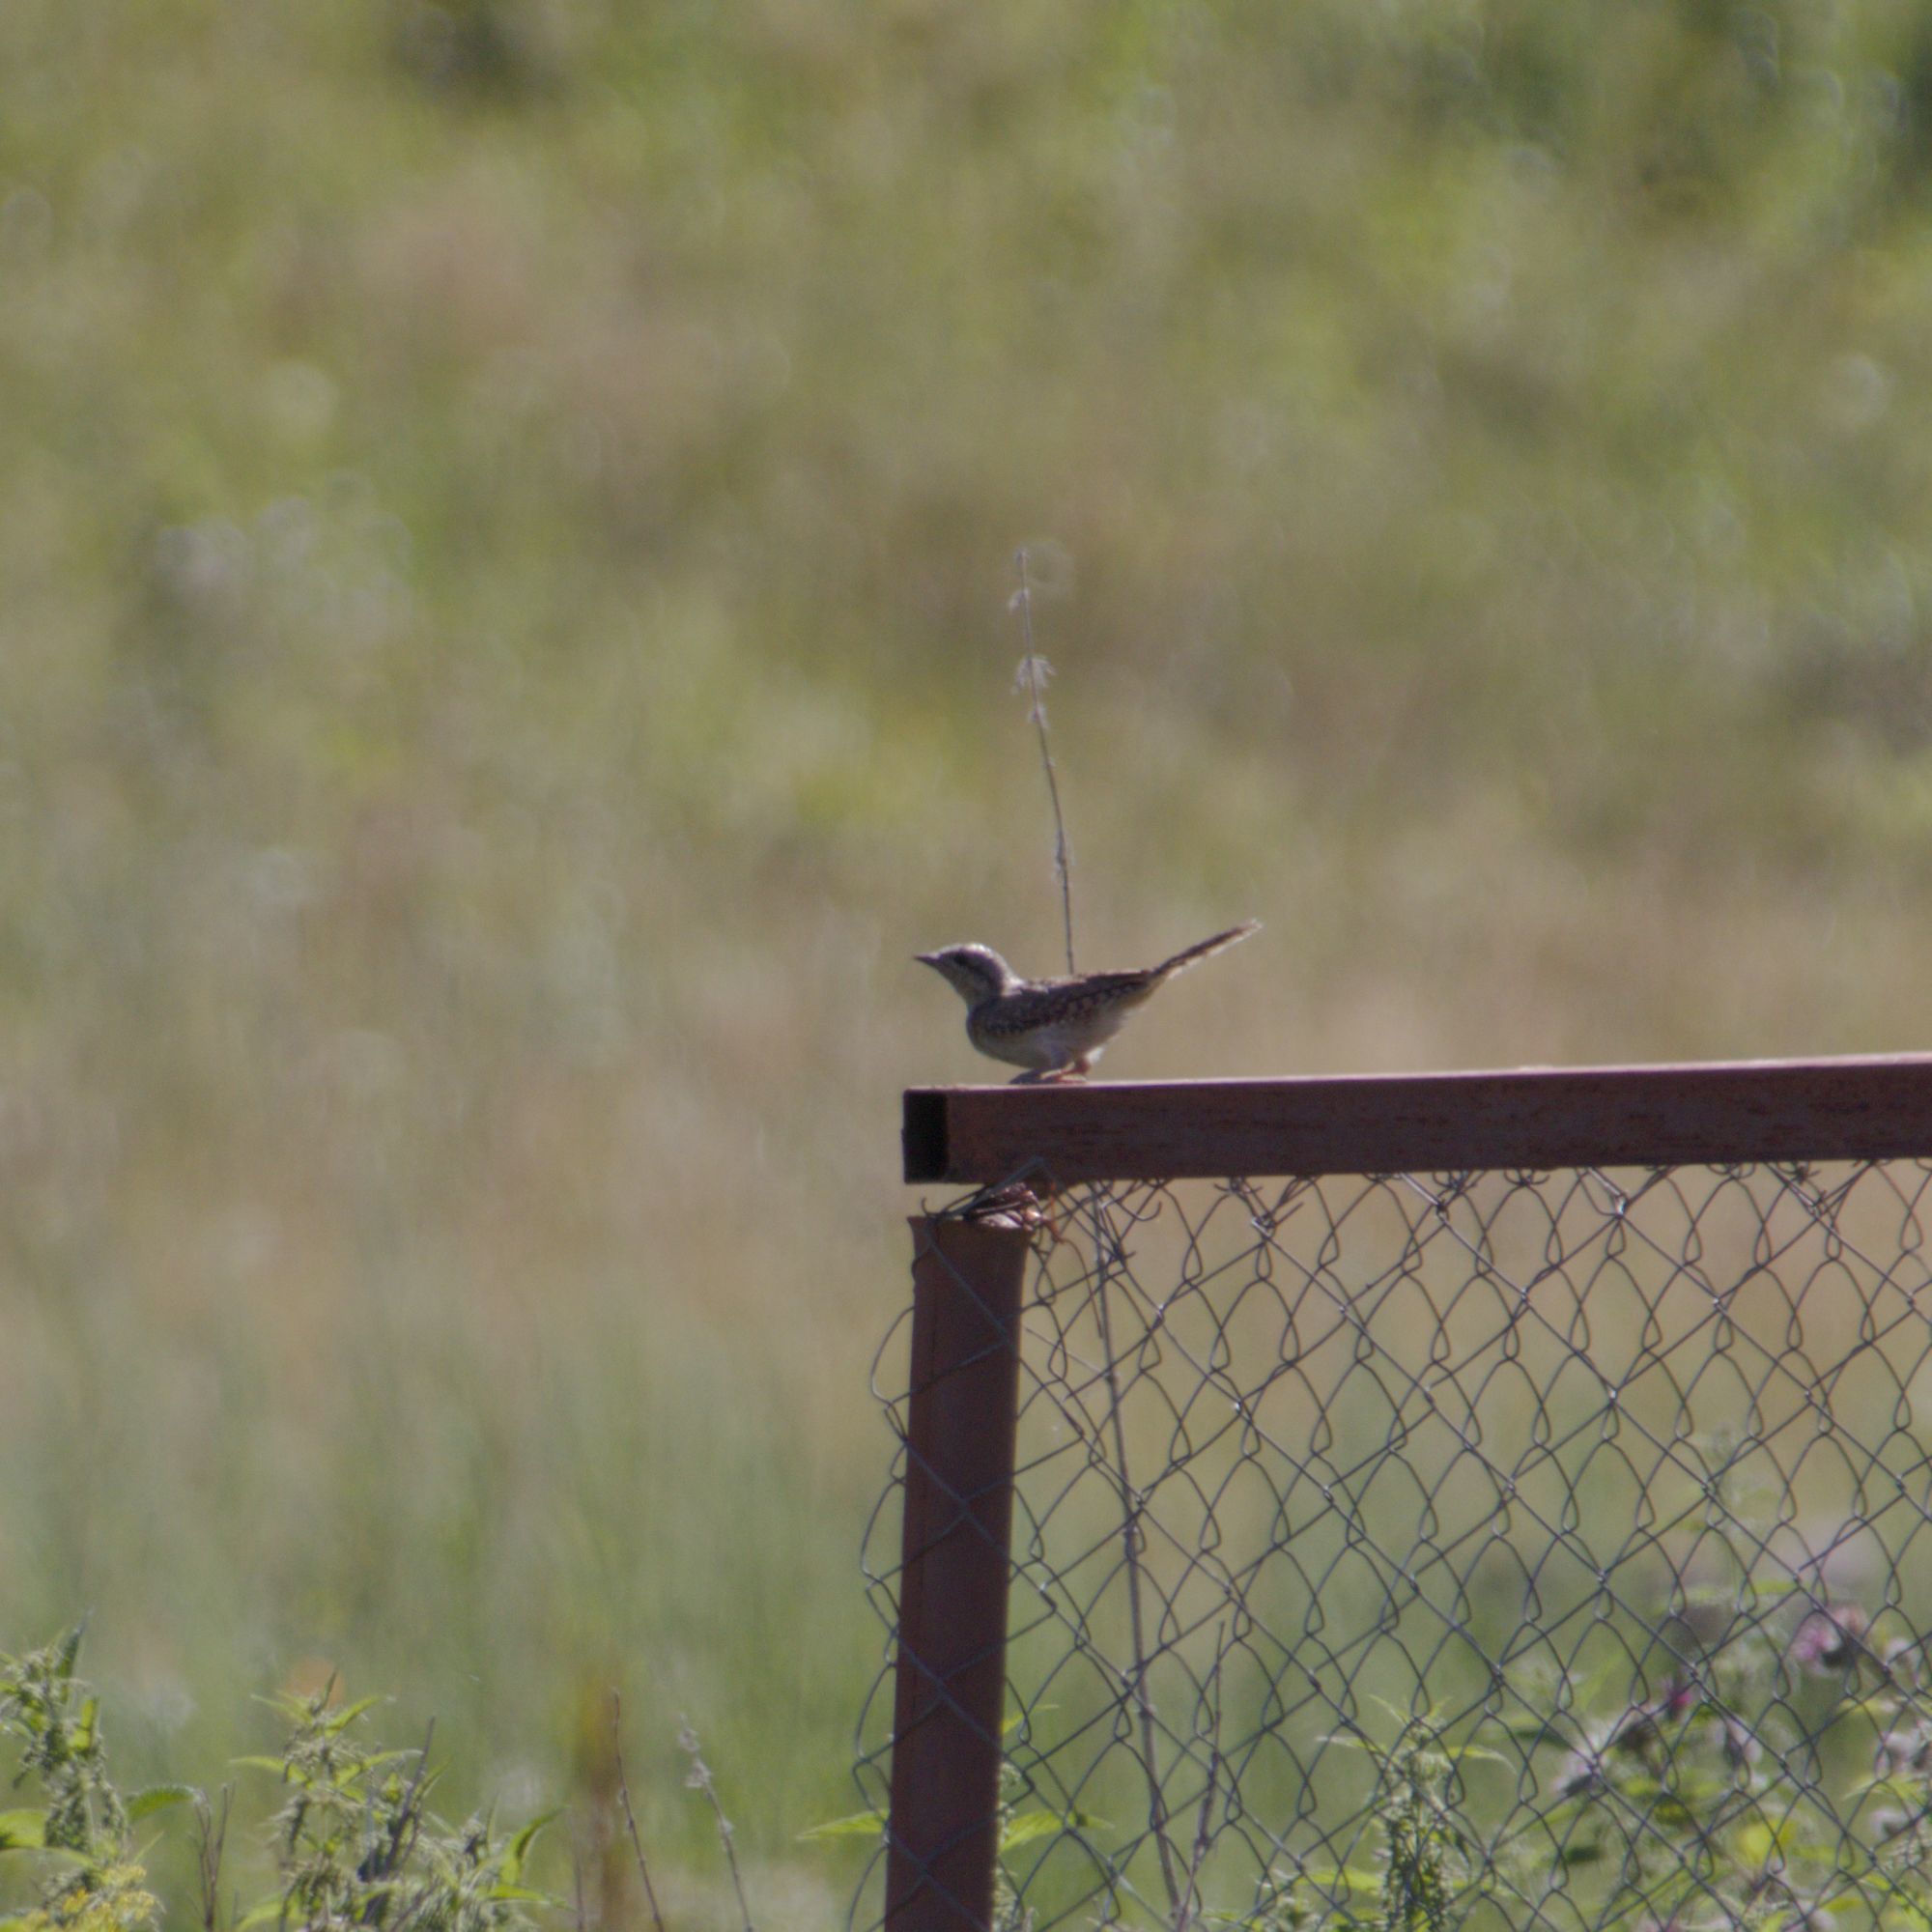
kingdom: Animalia
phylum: Chordata
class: Aves
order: Piciformes
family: Picidae
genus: Jynx
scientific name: Jynx torquilla
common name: Eurasian wryneck
